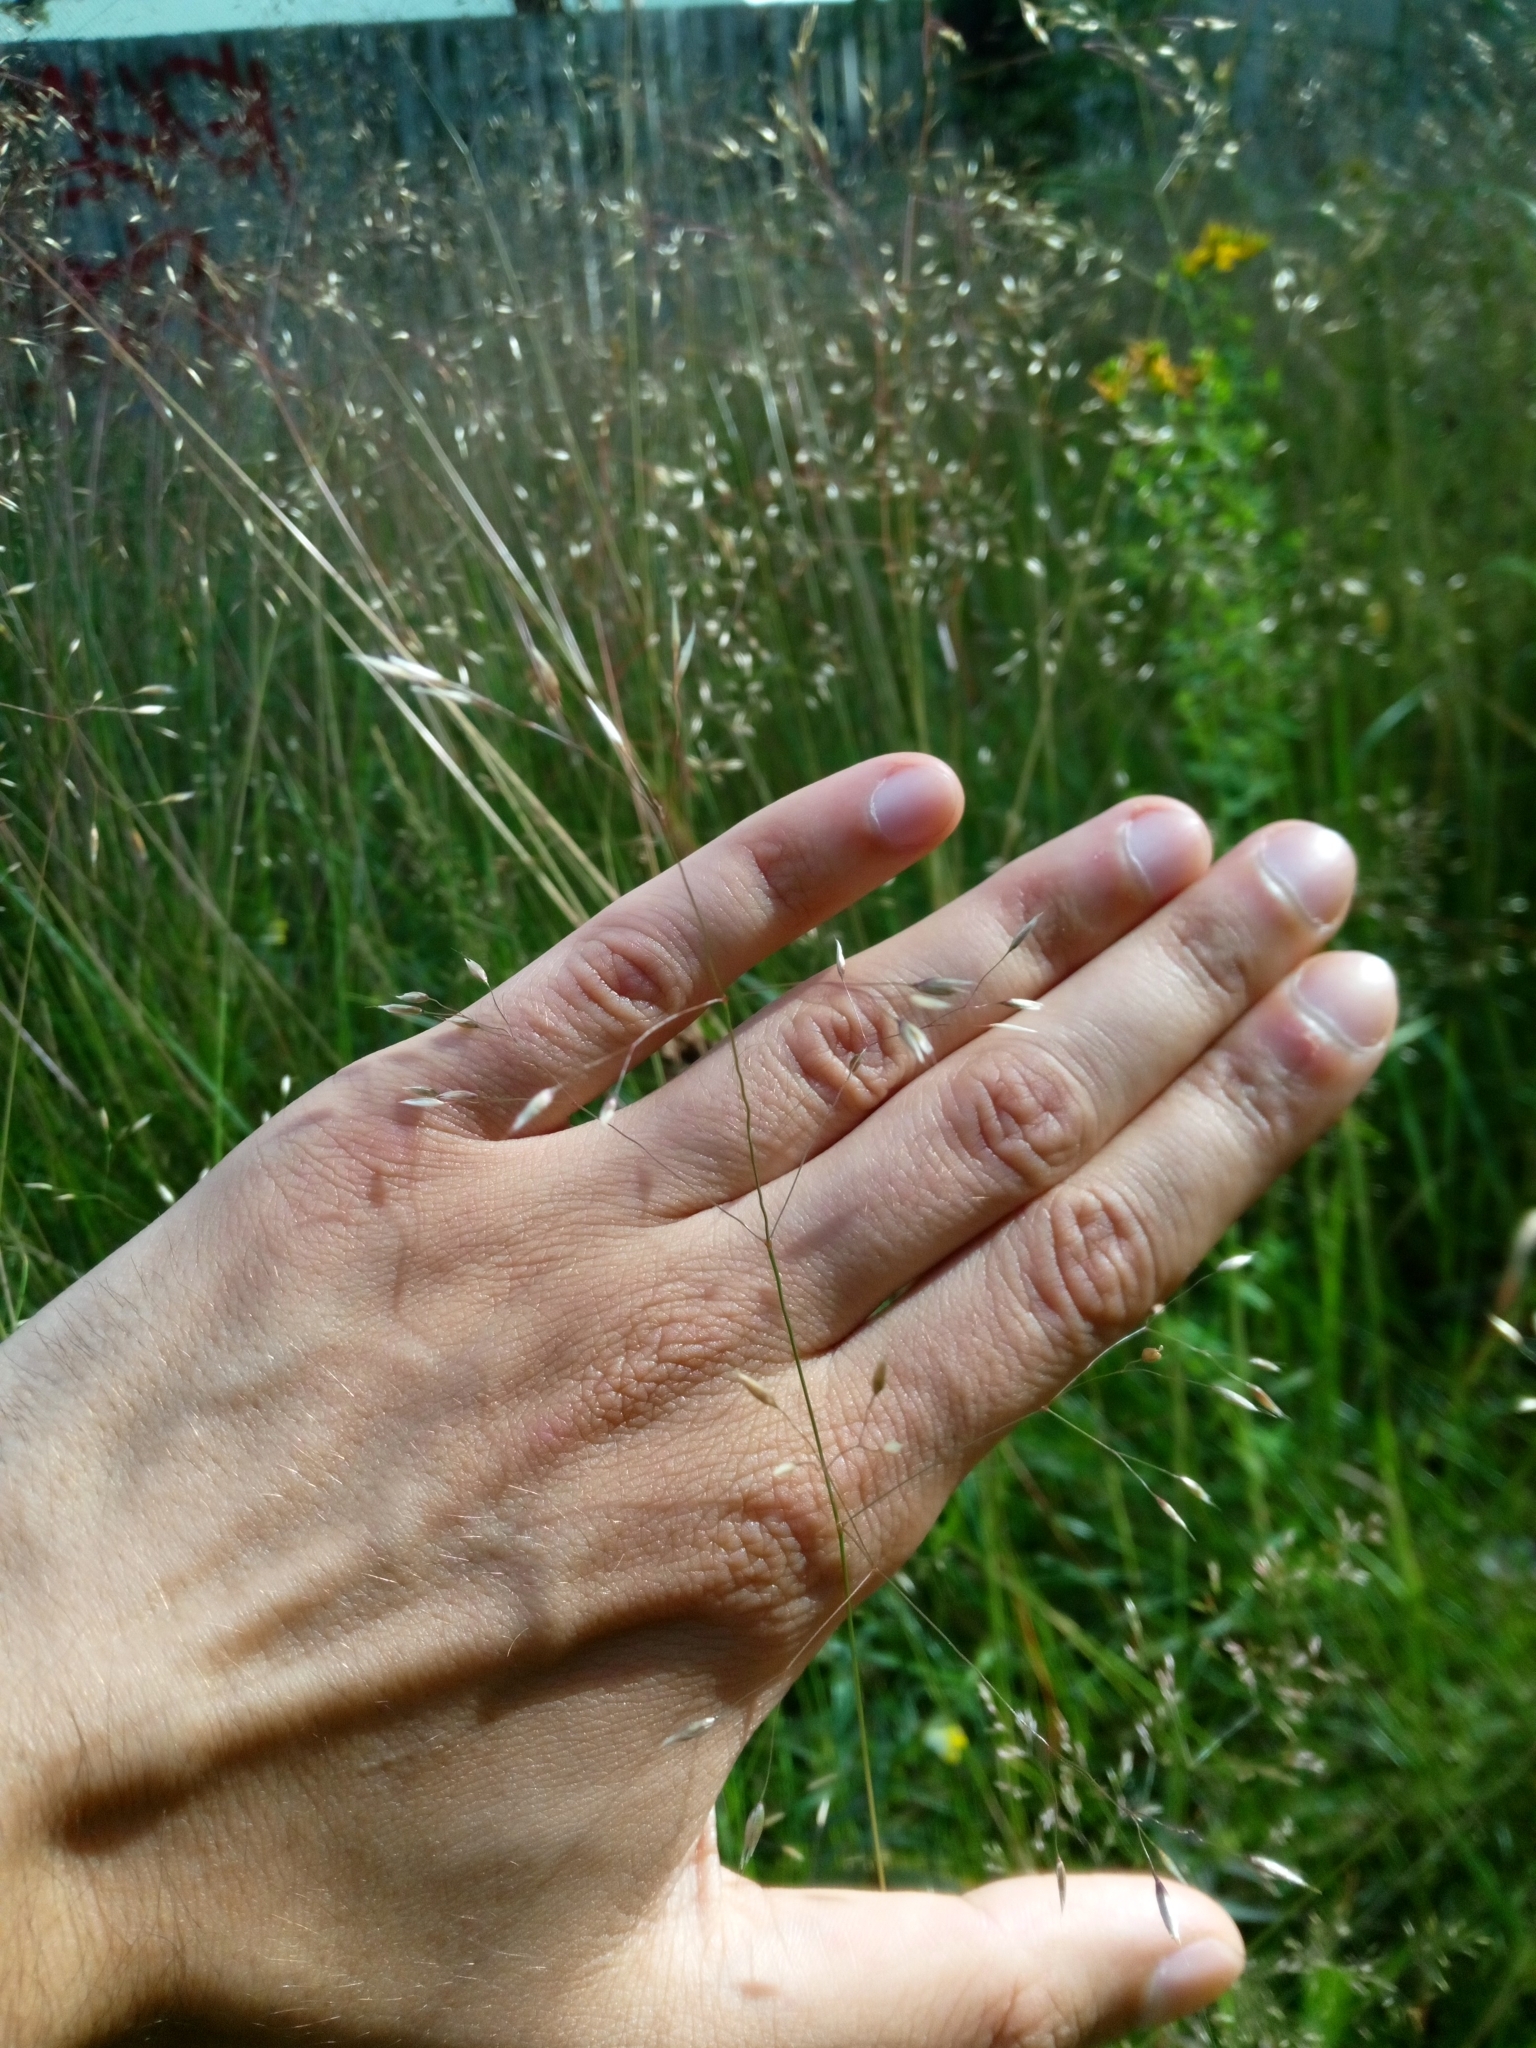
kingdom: Plantae
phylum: Tracheophyta
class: Liliopsida
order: Poales
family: Poaceae
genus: Avenella
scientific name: Avenella flexuosa
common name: Wavy hairgrass
